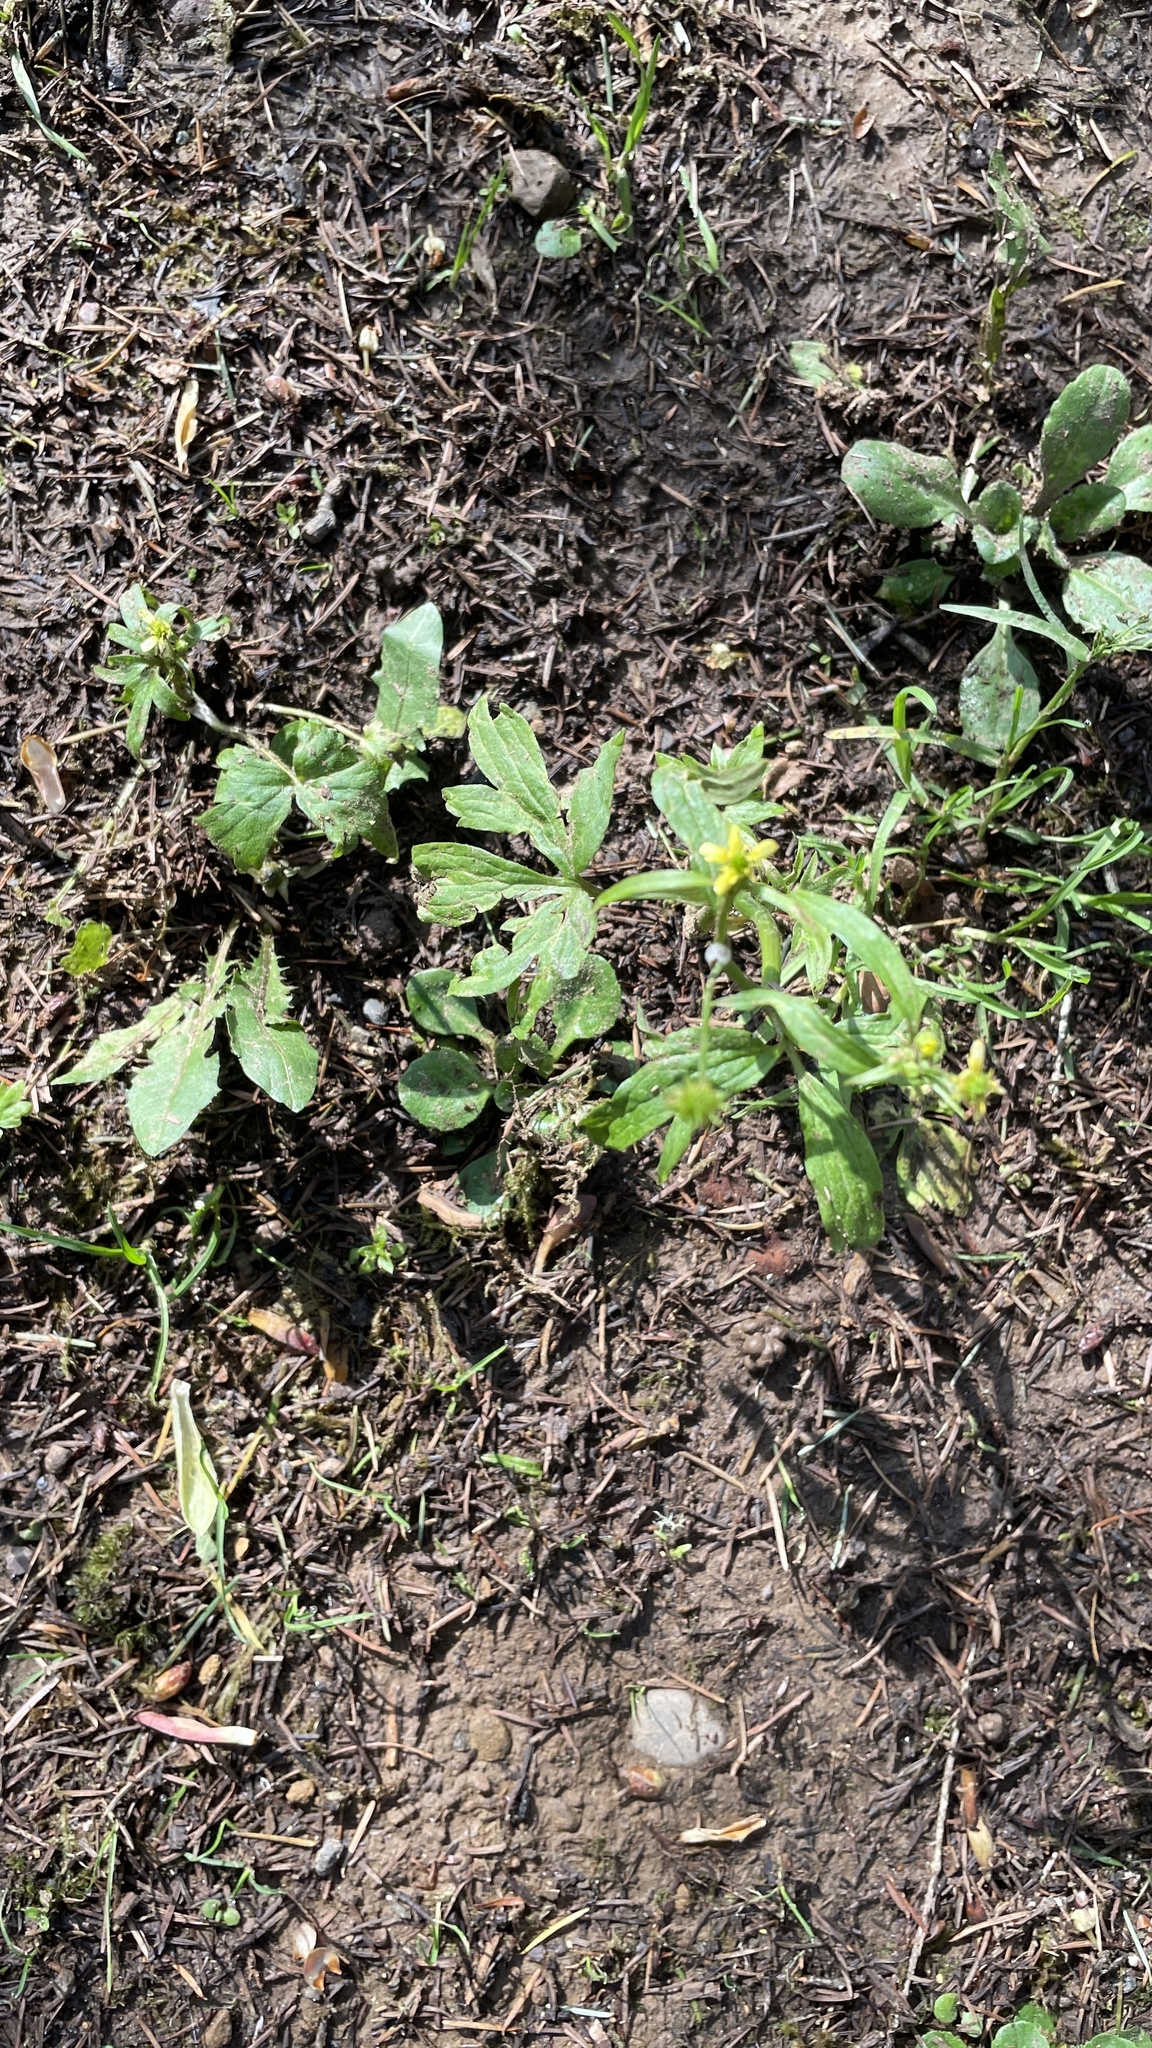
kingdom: Plantae
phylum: Tracheophyta
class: Magnoliopsida
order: Ranunculales
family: Ranunculaceae
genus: Ranunculus
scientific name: Ranunculus uncinatus
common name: Little buttercup
